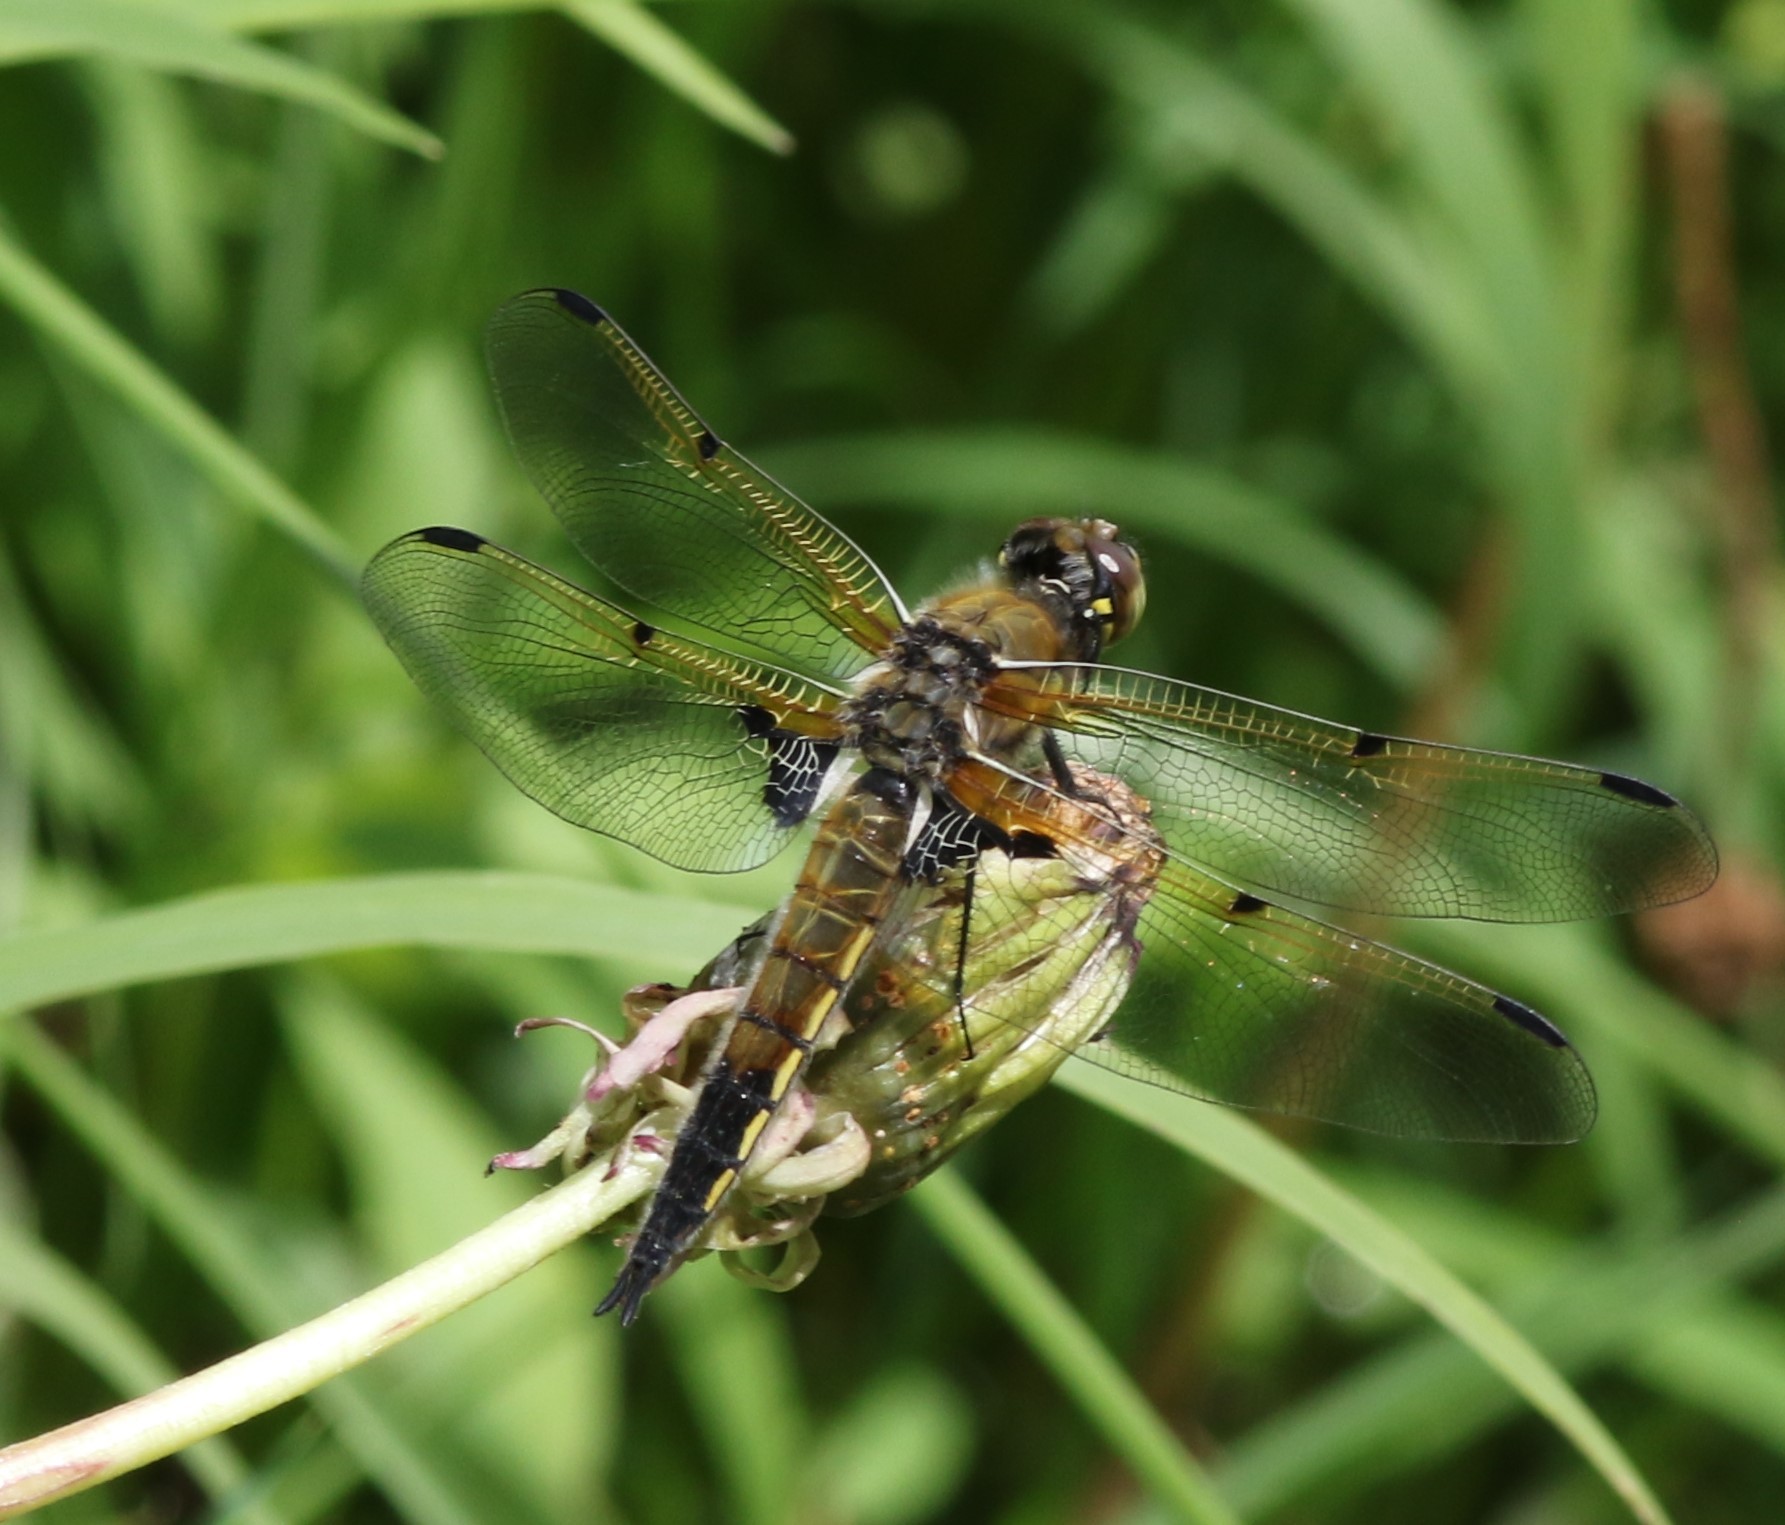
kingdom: Animalia
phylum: Arthropoda
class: Insecta
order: Odonata
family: Libellulidae
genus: Libellula
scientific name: Libellula quadrimaculata
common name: Four-spotted chaser
